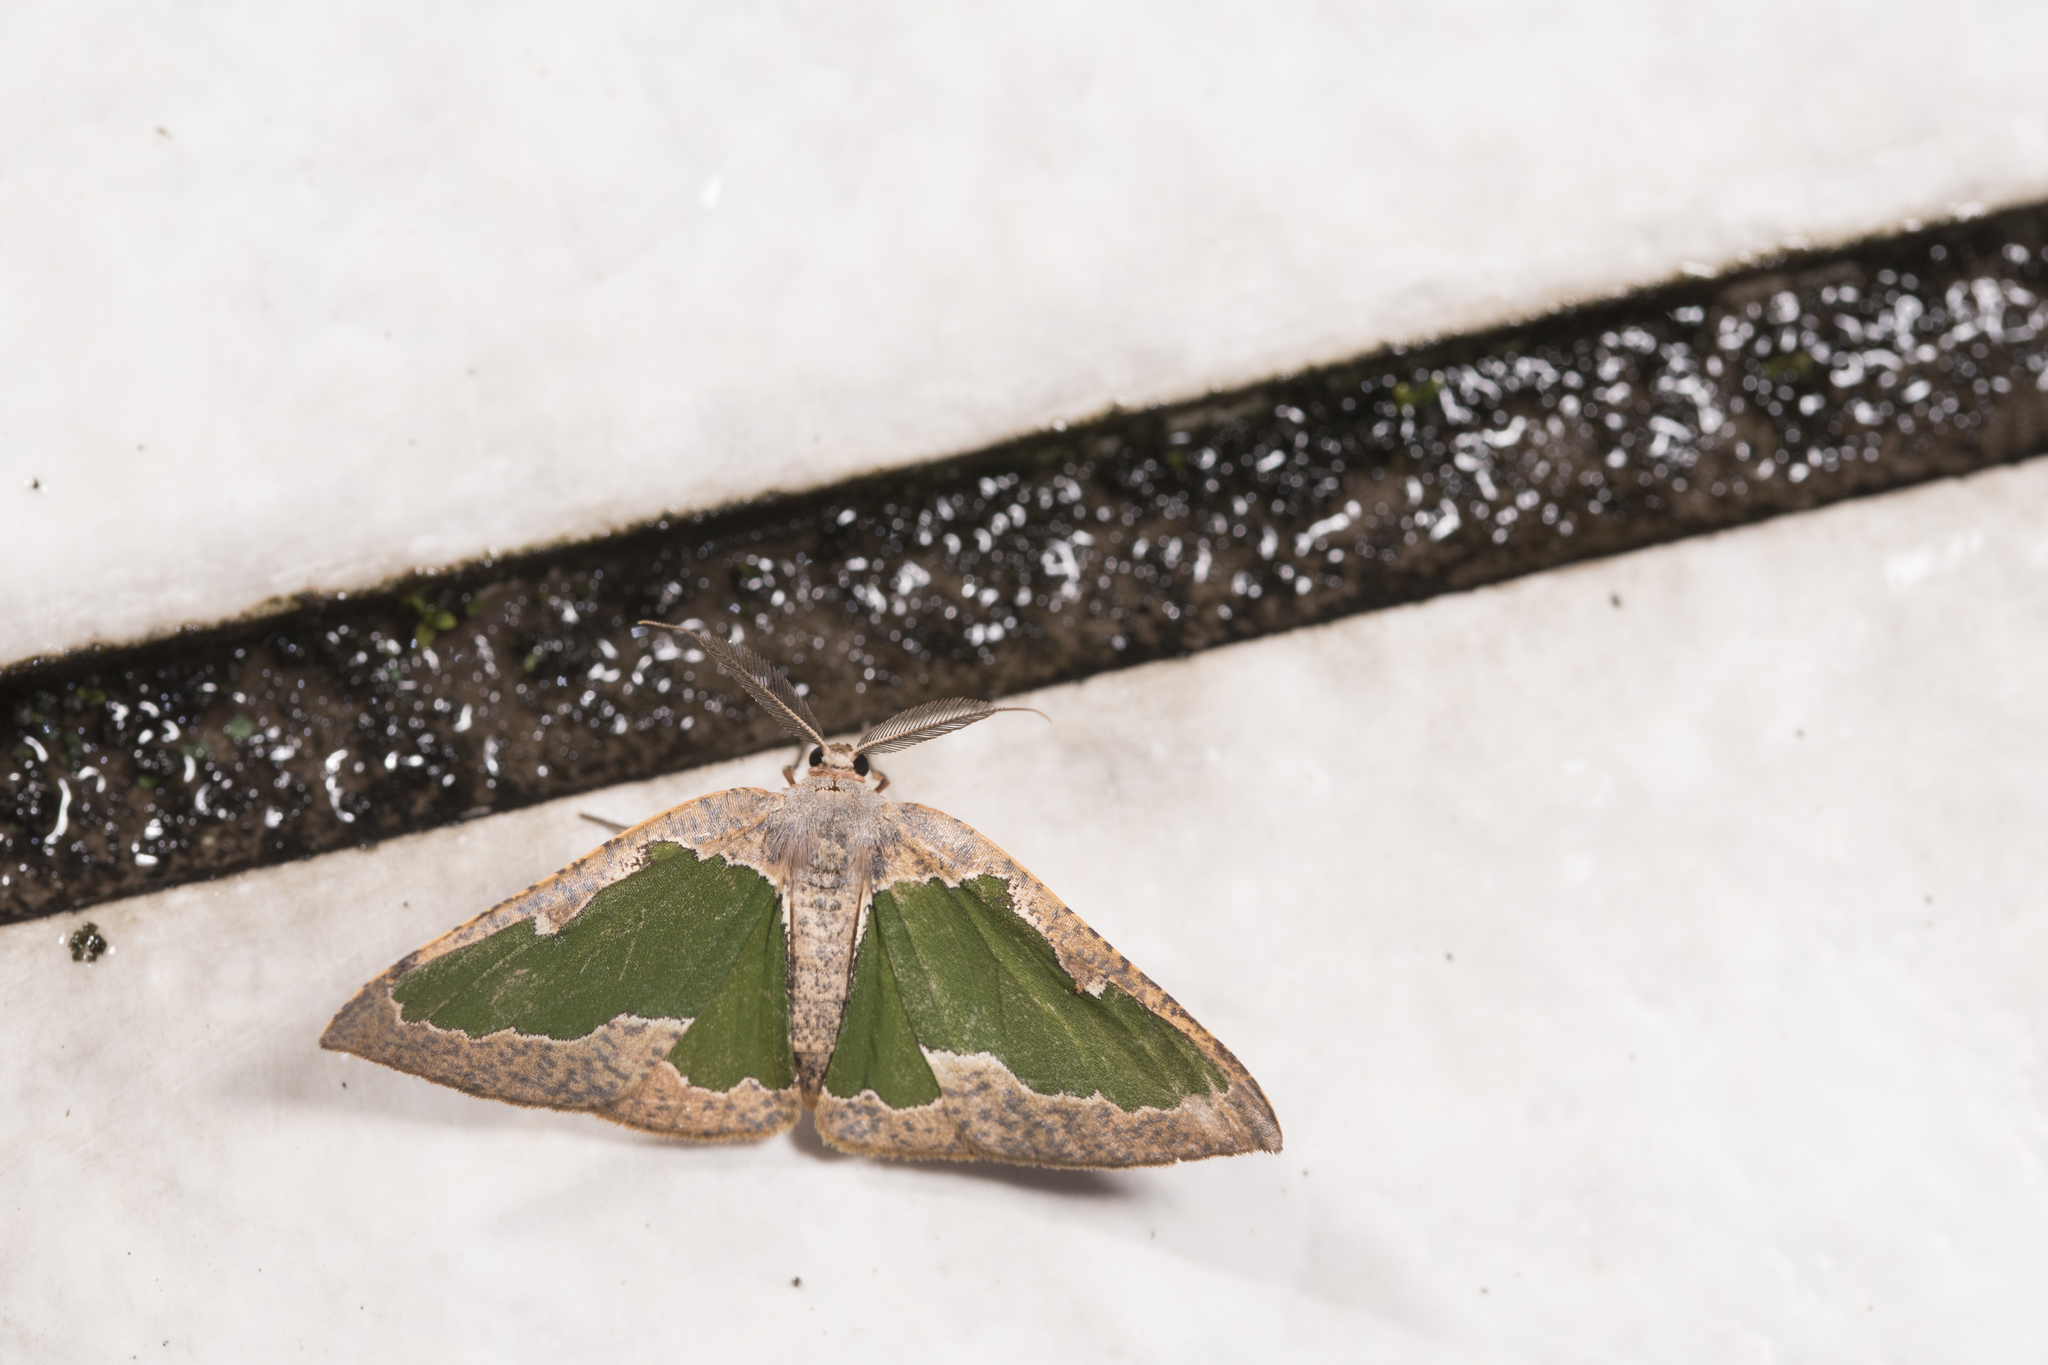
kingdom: Animalia
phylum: Arthropoda
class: Insecta
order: Lepidoptera
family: Geometridae
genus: Celenna
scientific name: Celenna festivaria
